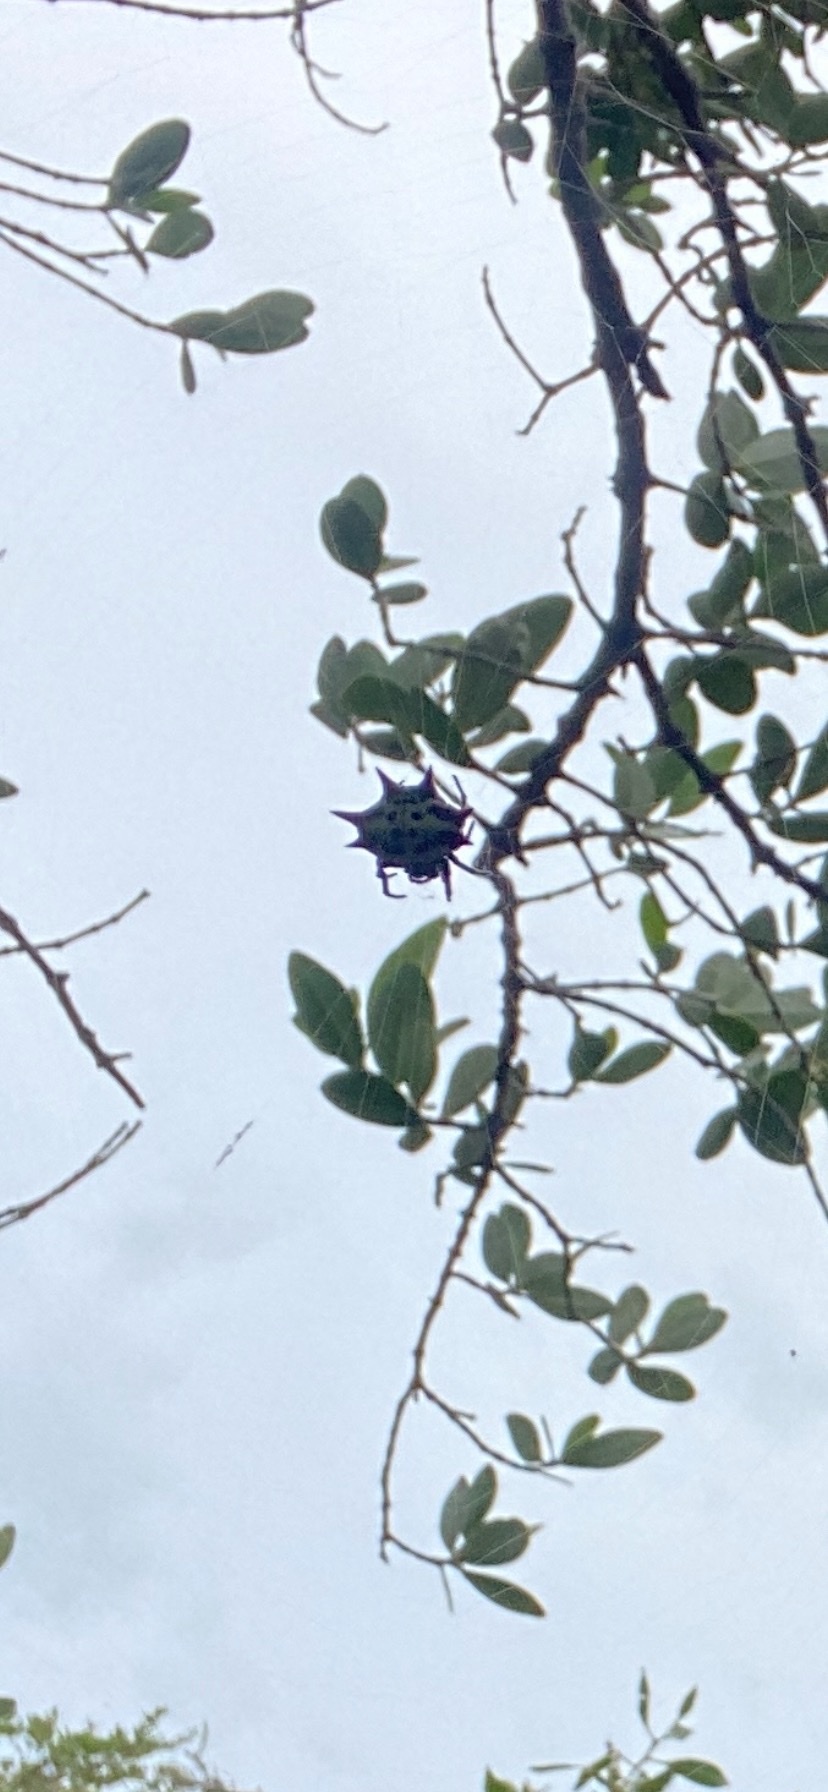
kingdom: Animalia
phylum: Arthropoda
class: Arachnida
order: Araneae
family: Araneidae
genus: Gasteracantha
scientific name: Gasteracantha cancriformis
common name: Orb weavers
